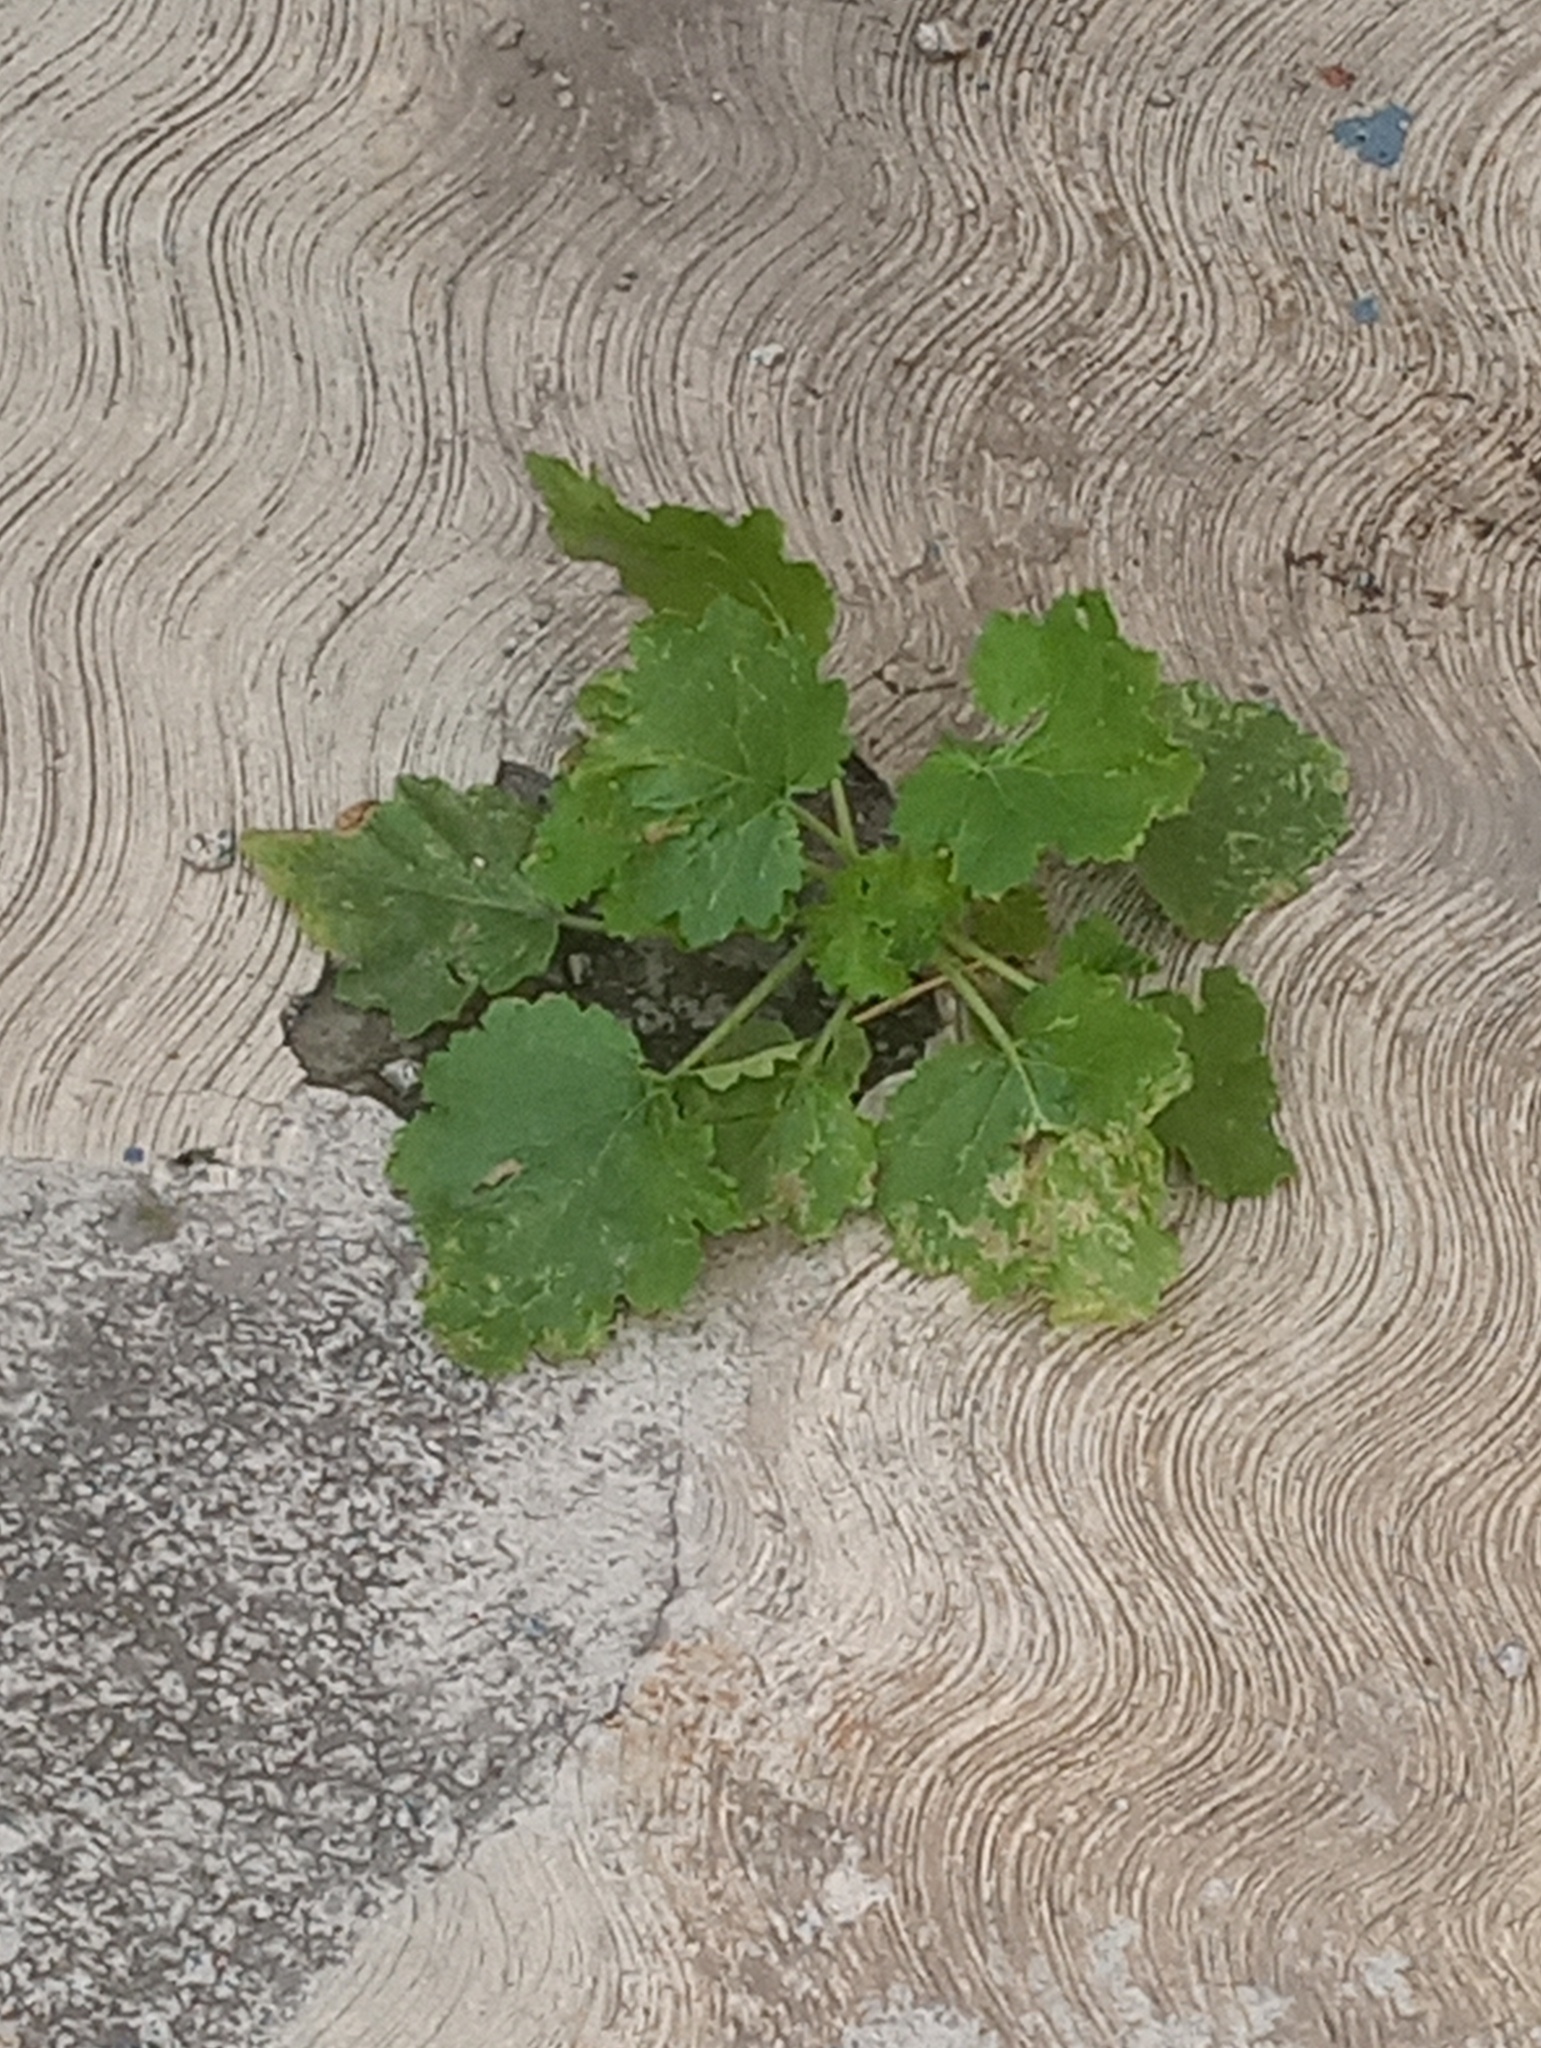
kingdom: Plantae
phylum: Tracheophyta
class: Magnoliopsida
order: Cornales
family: Loasaceae
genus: Eucnide
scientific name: Eucnide lobata
